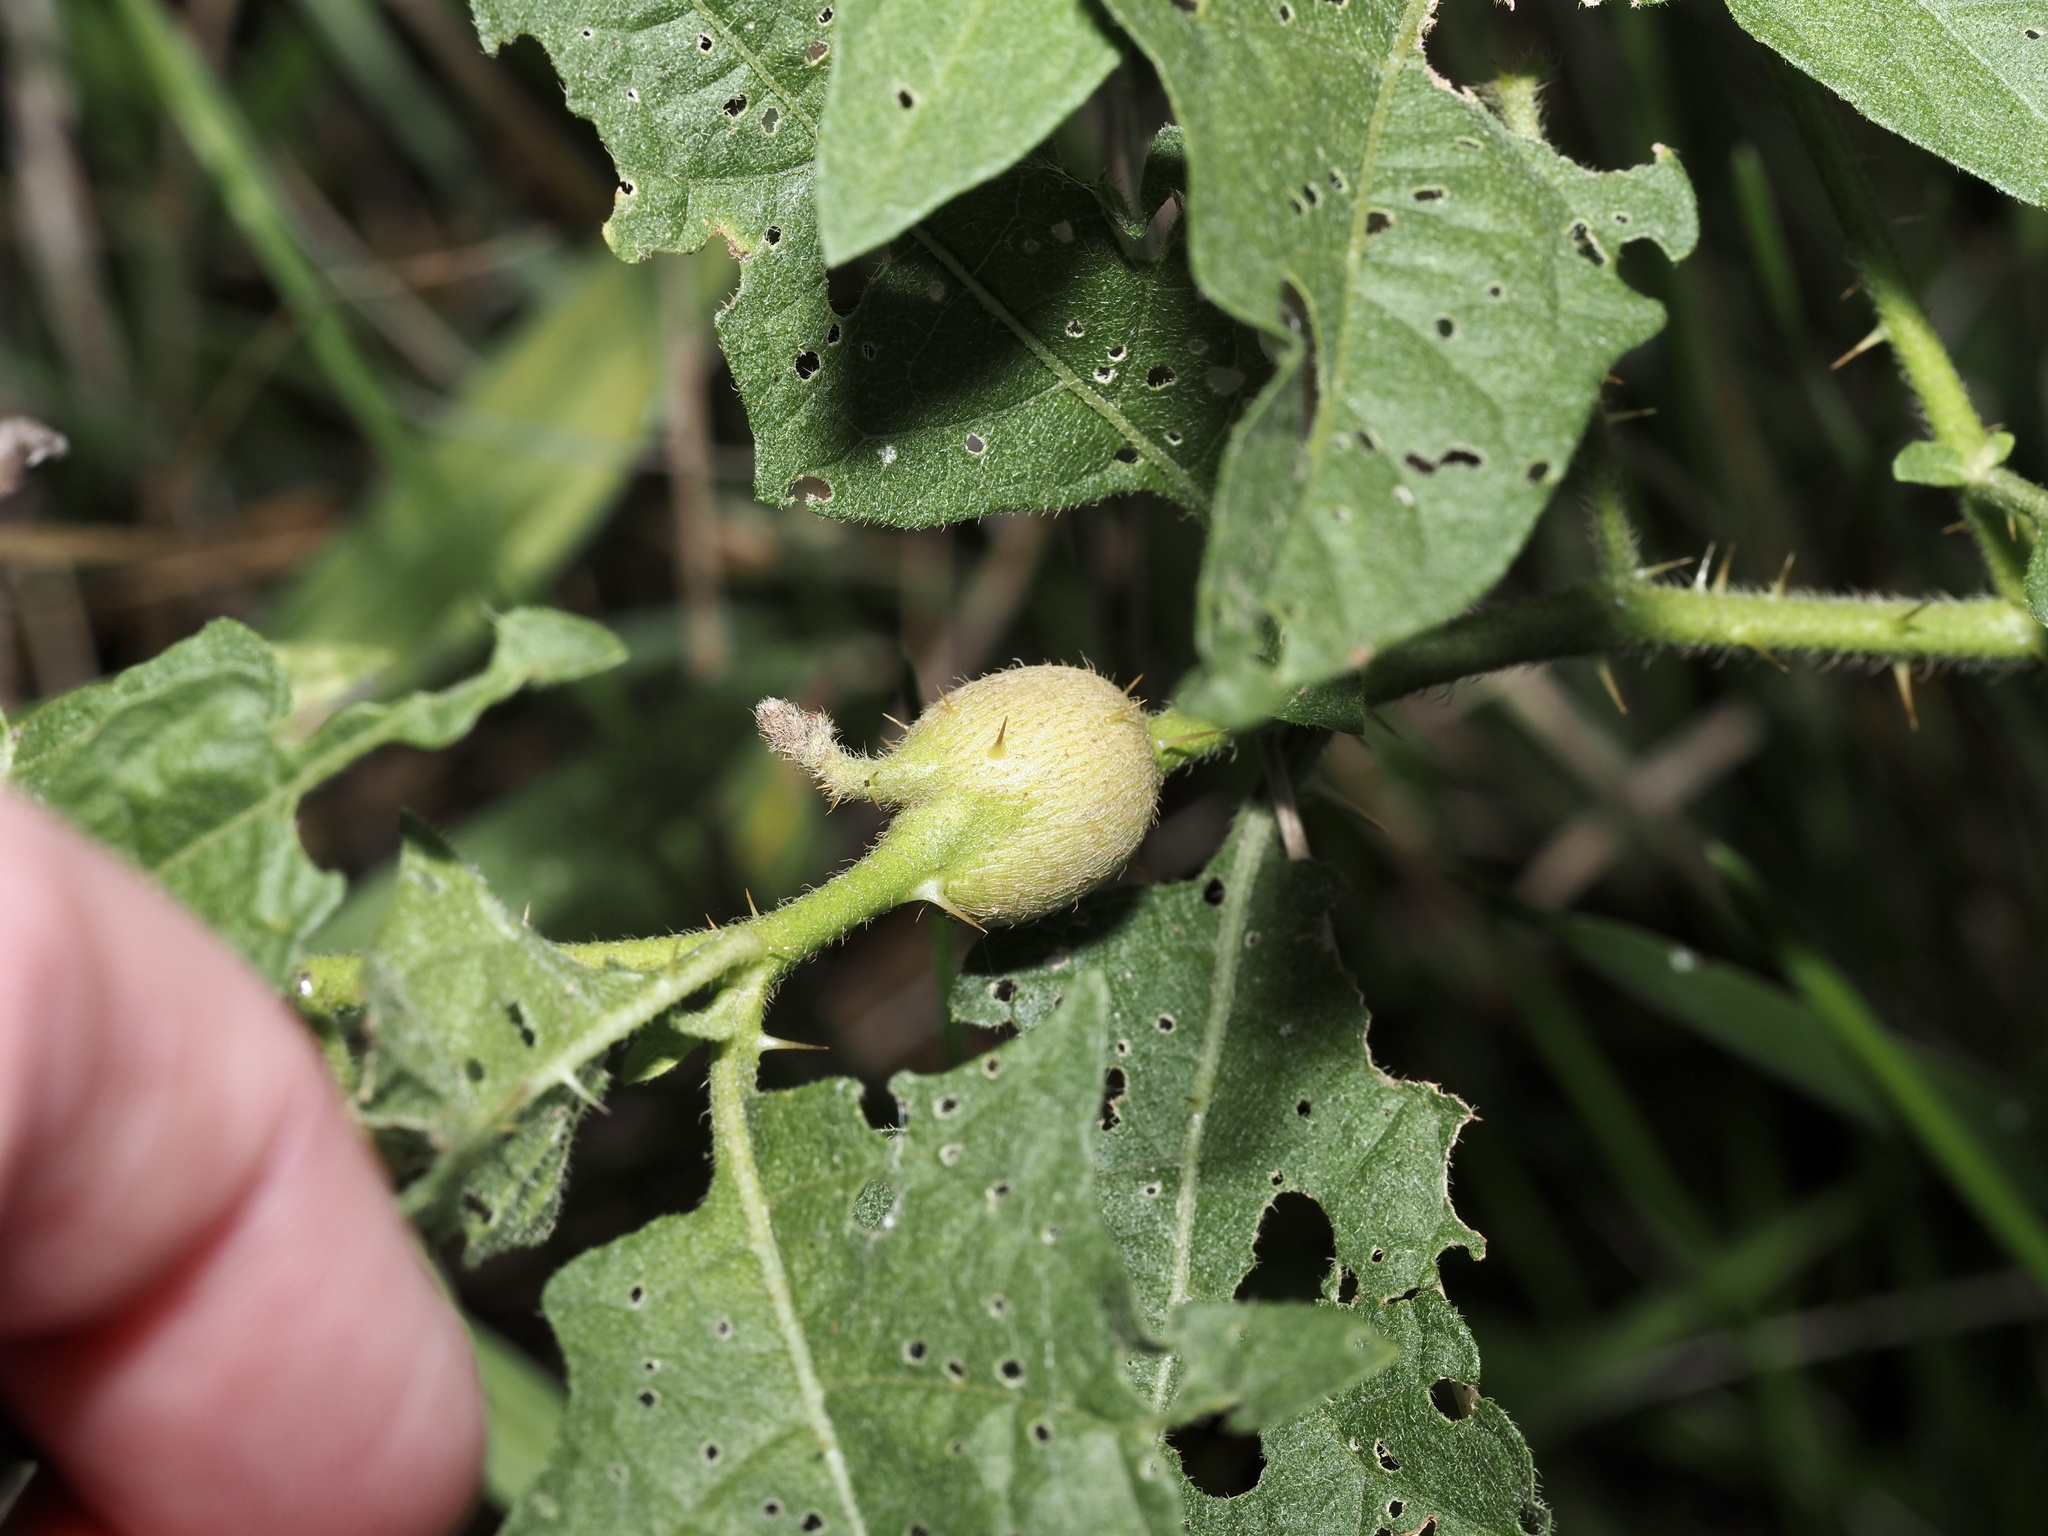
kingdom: Animalia
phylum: Arthropoda
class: Insecta
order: Diptera
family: Cecidomyiidae
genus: Lasioptera
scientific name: Lasioptera solani
